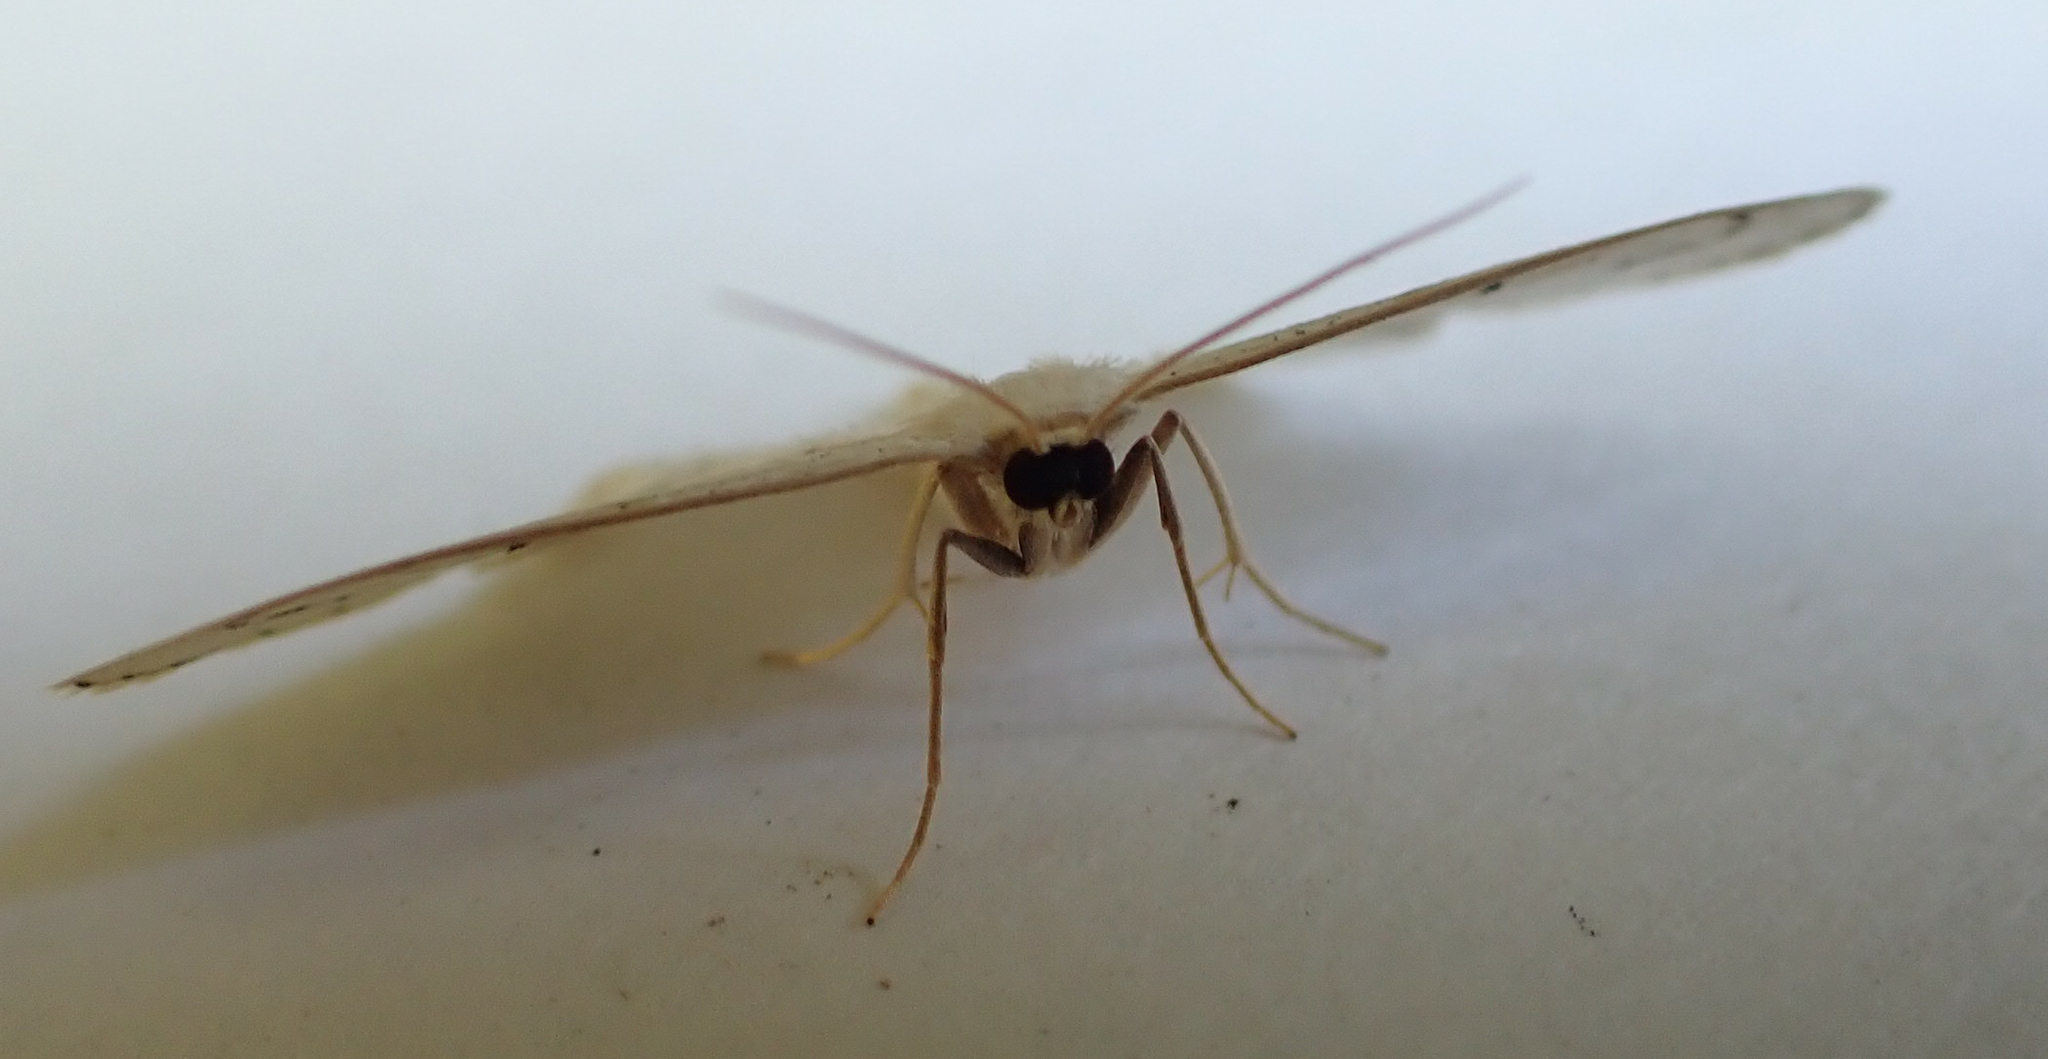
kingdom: Animalia
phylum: Arthropoda
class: Insecta
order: Lepidoptera
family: Geometridae
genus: Scopula
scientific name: Scopula limboundata
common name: Large lace border
